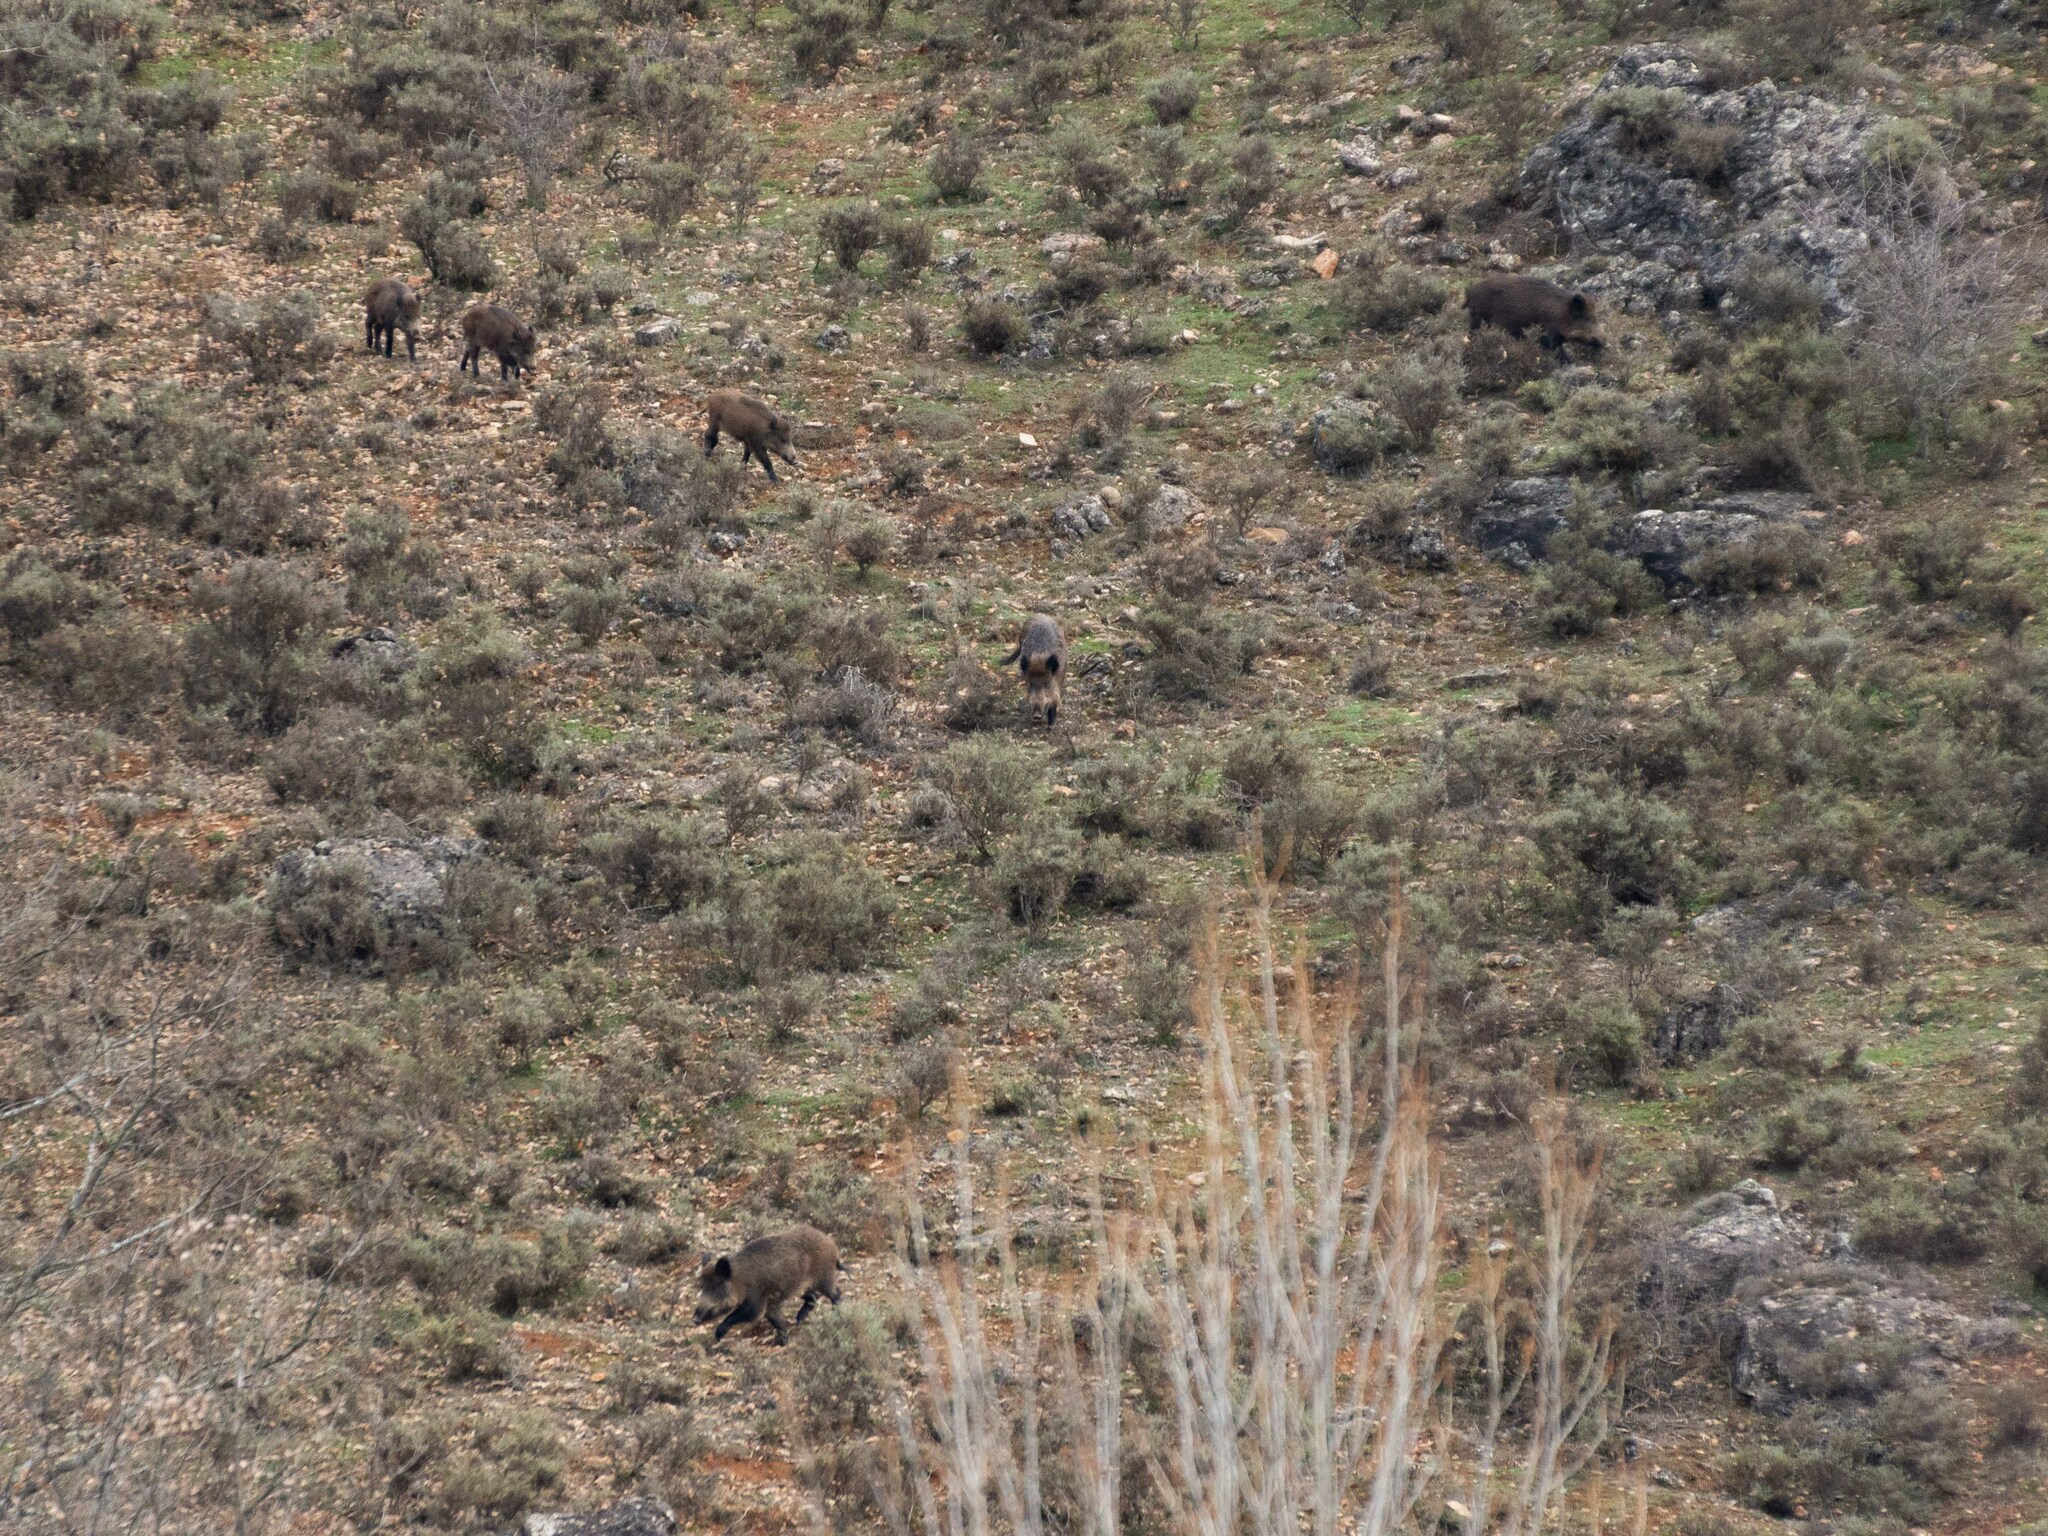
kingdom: Animalia
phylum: Chordata
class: Mammalia
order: Artiodactyla
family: Suidae
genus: Sus
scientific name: Sus scrofa
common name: Wild boar
